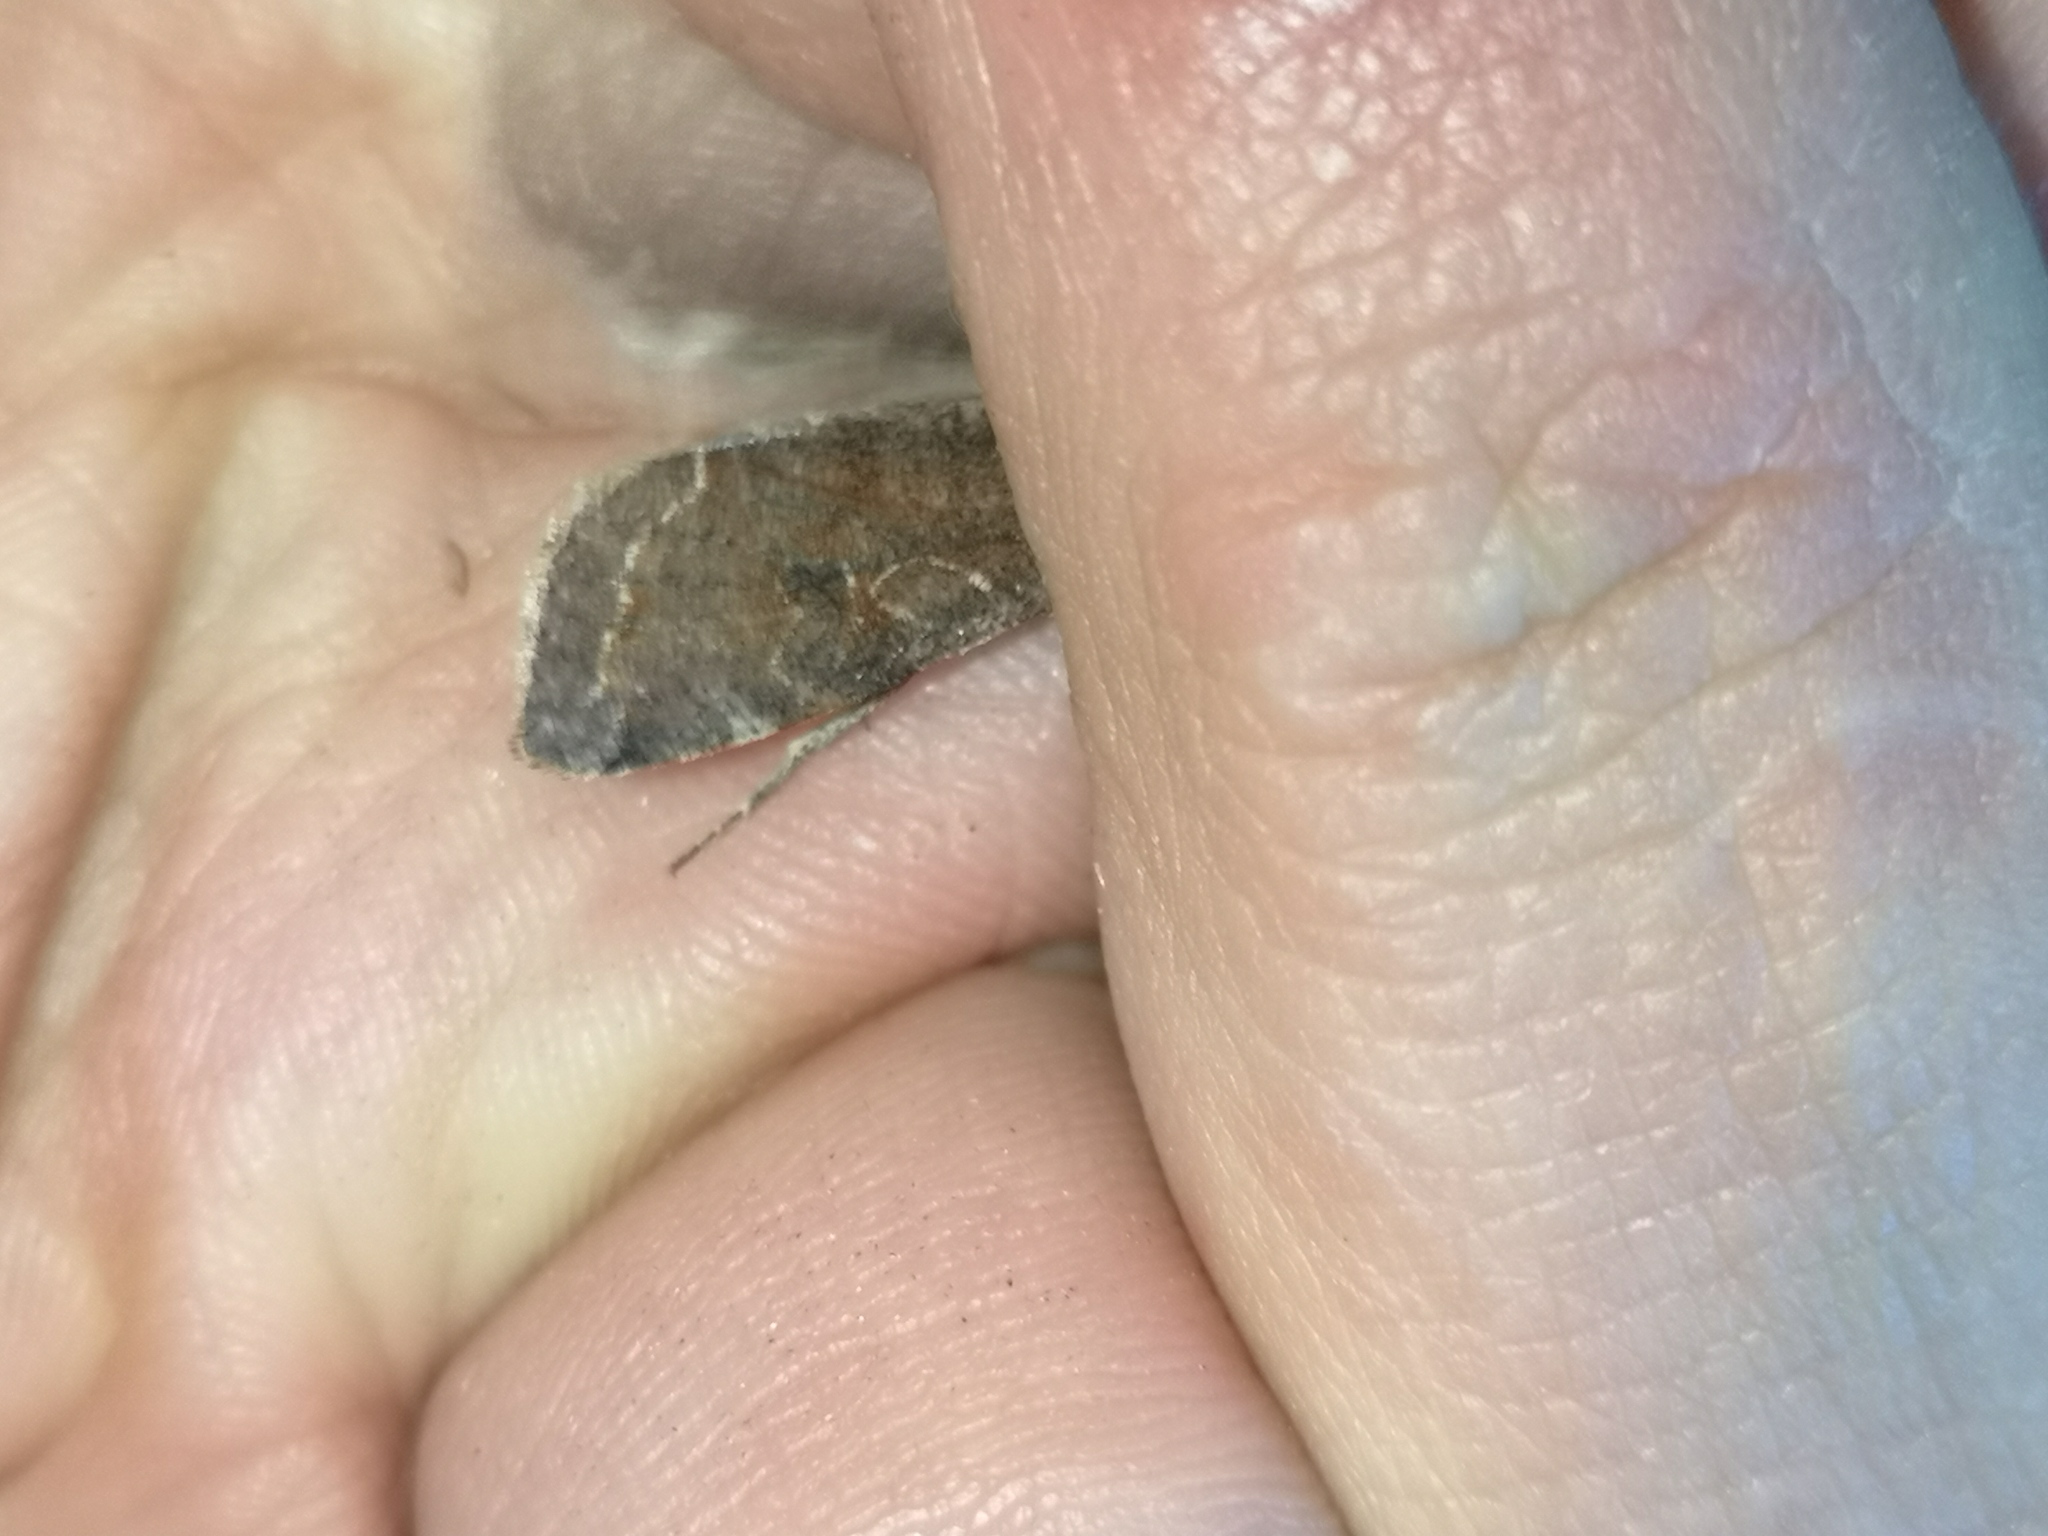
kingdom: Animalia
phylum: Arthropoda
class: Insecta
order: Lepidoptera
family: Noctuidae
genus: Orthosia
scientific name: Orthosia incerta
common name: Clouded drab
